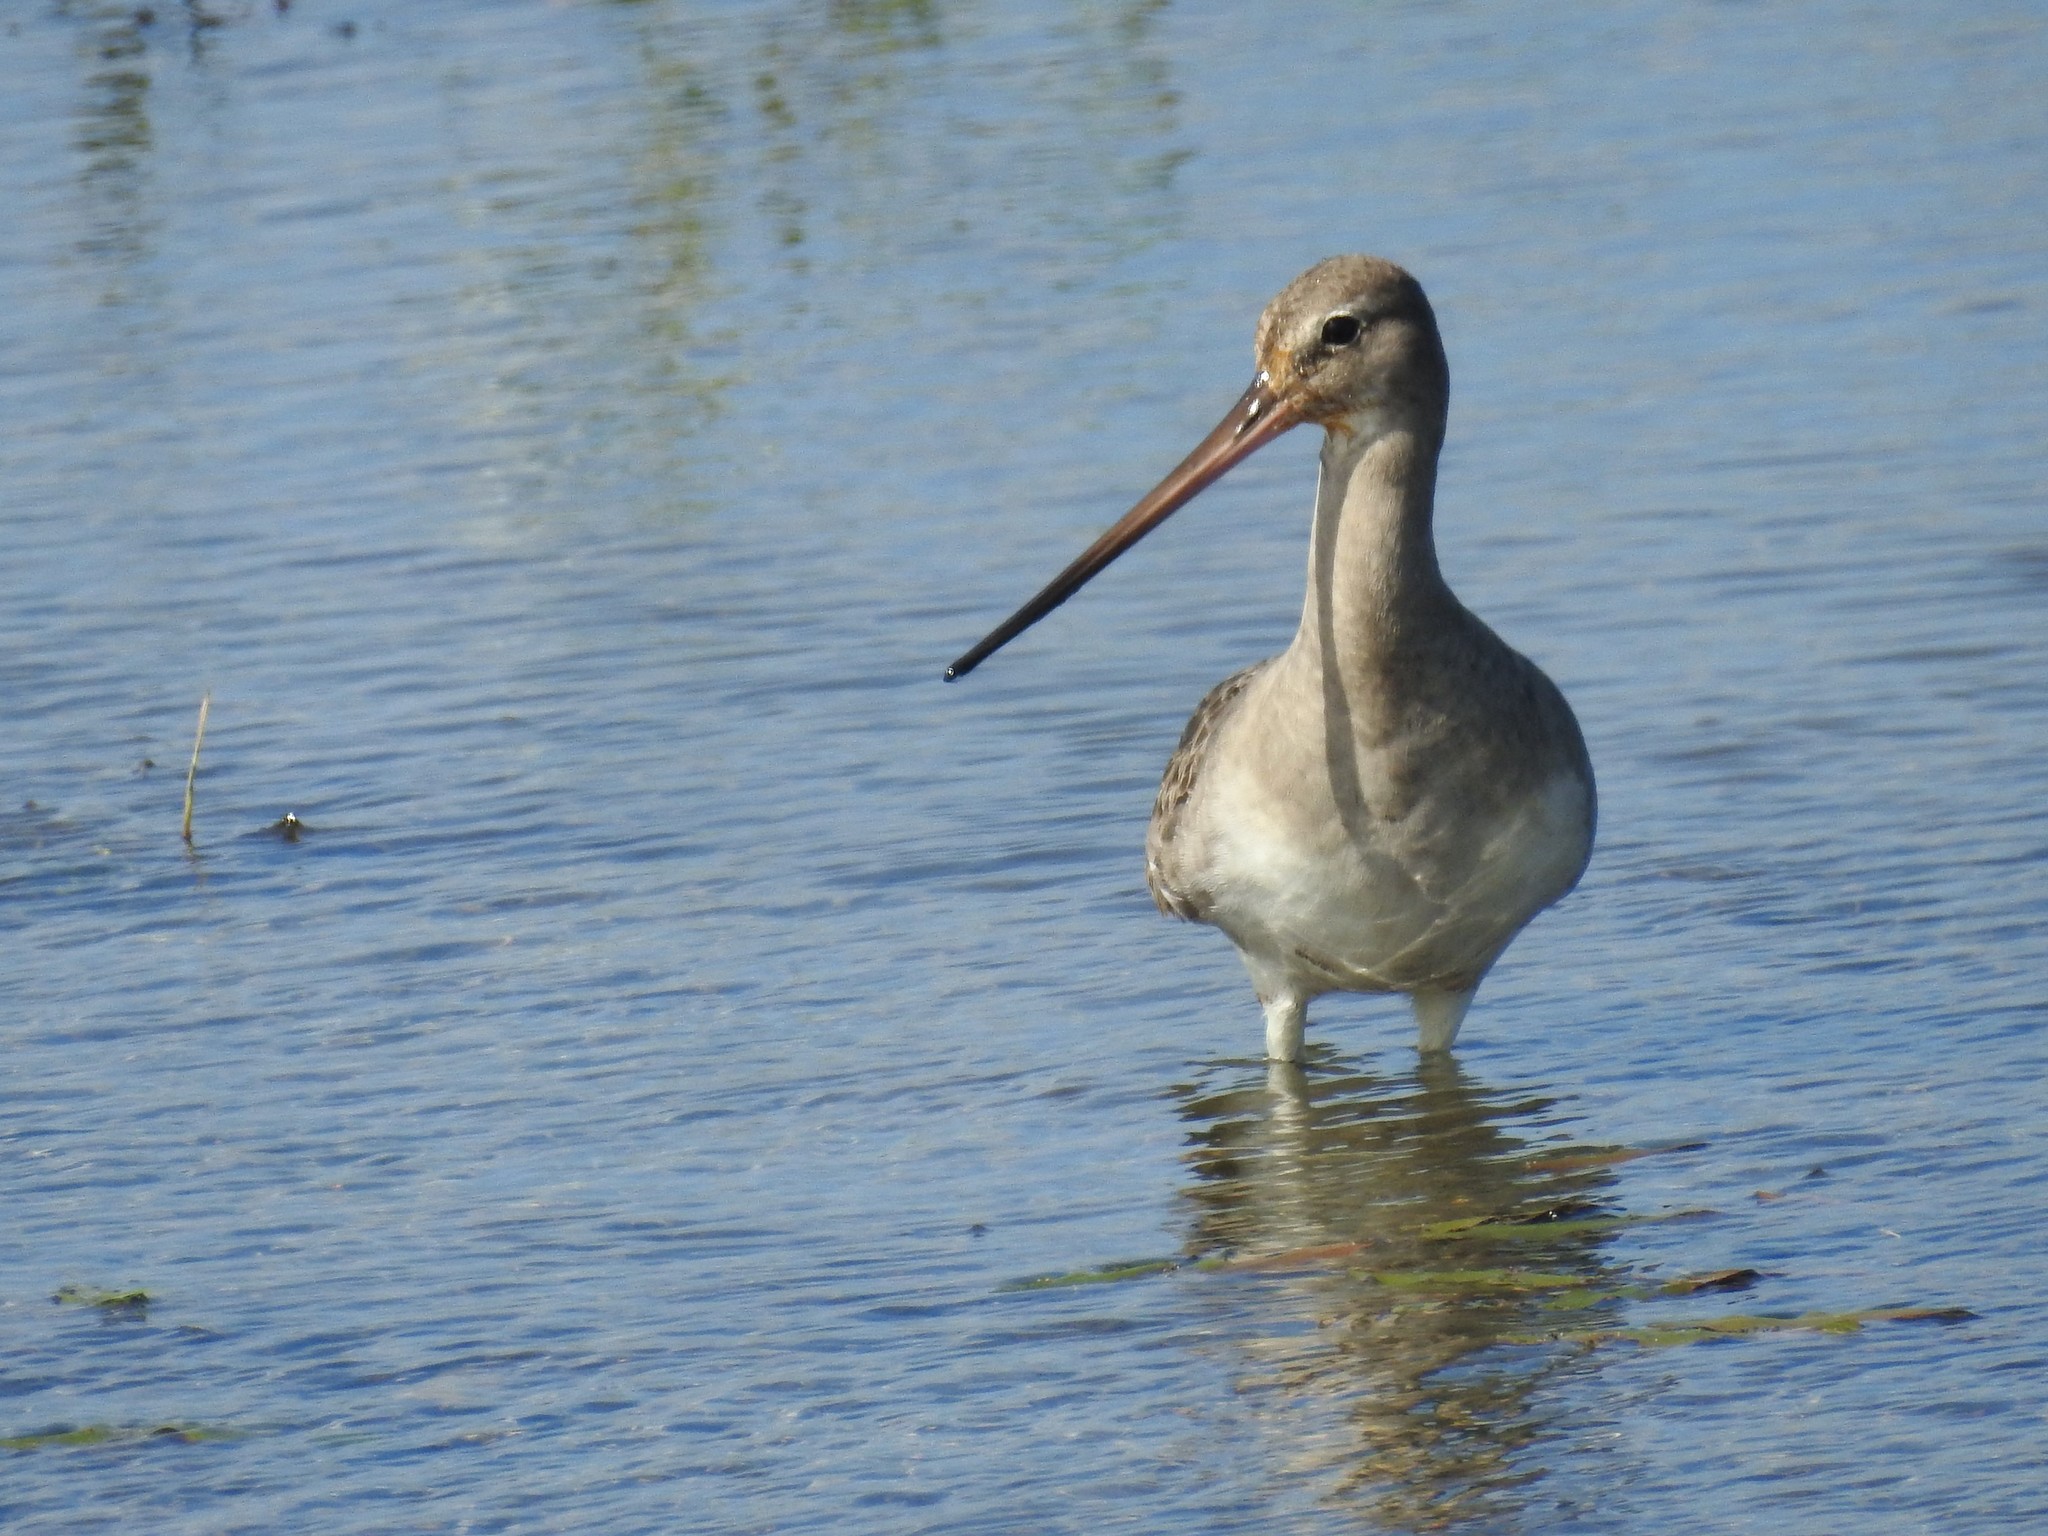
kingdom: Animalia
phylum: Chordata
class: Aves
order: Charadriiformes
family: Scolopacidae
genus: Limosa
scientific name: Limosa haemastica
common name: Hudsonian godwit
